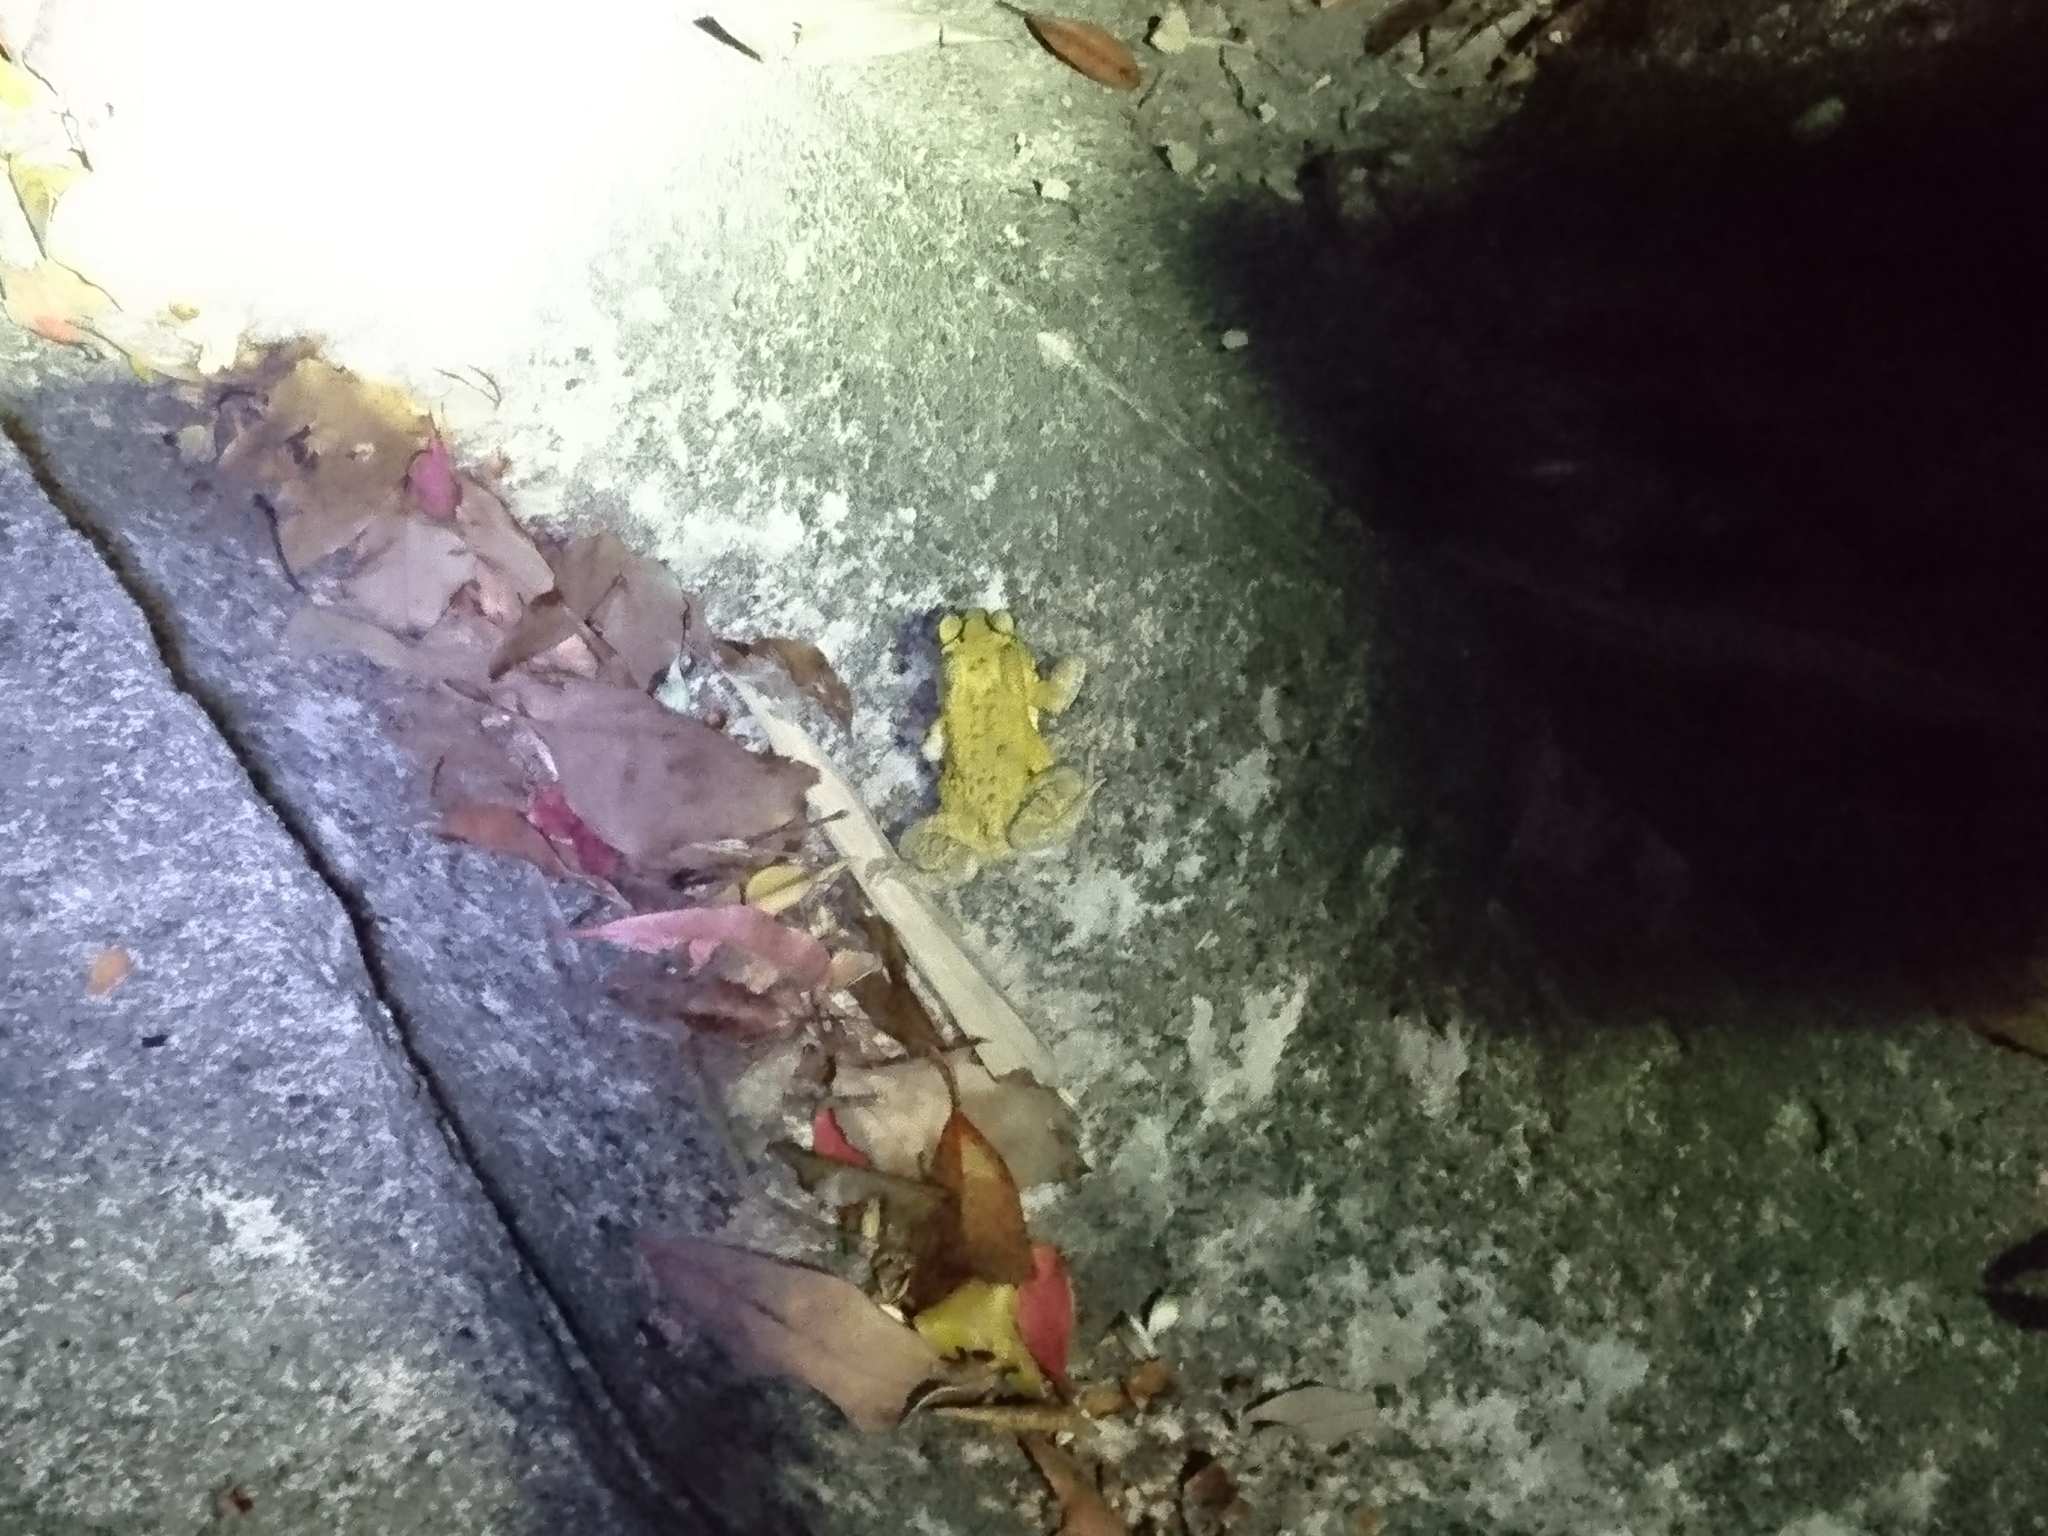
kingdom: Animalia
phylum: Chordata
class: Amphibia
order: Anura
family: Bufonidae
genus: Duttaphrynus
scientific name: Duttaphrynus melanostictus
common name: Common sunda toad
